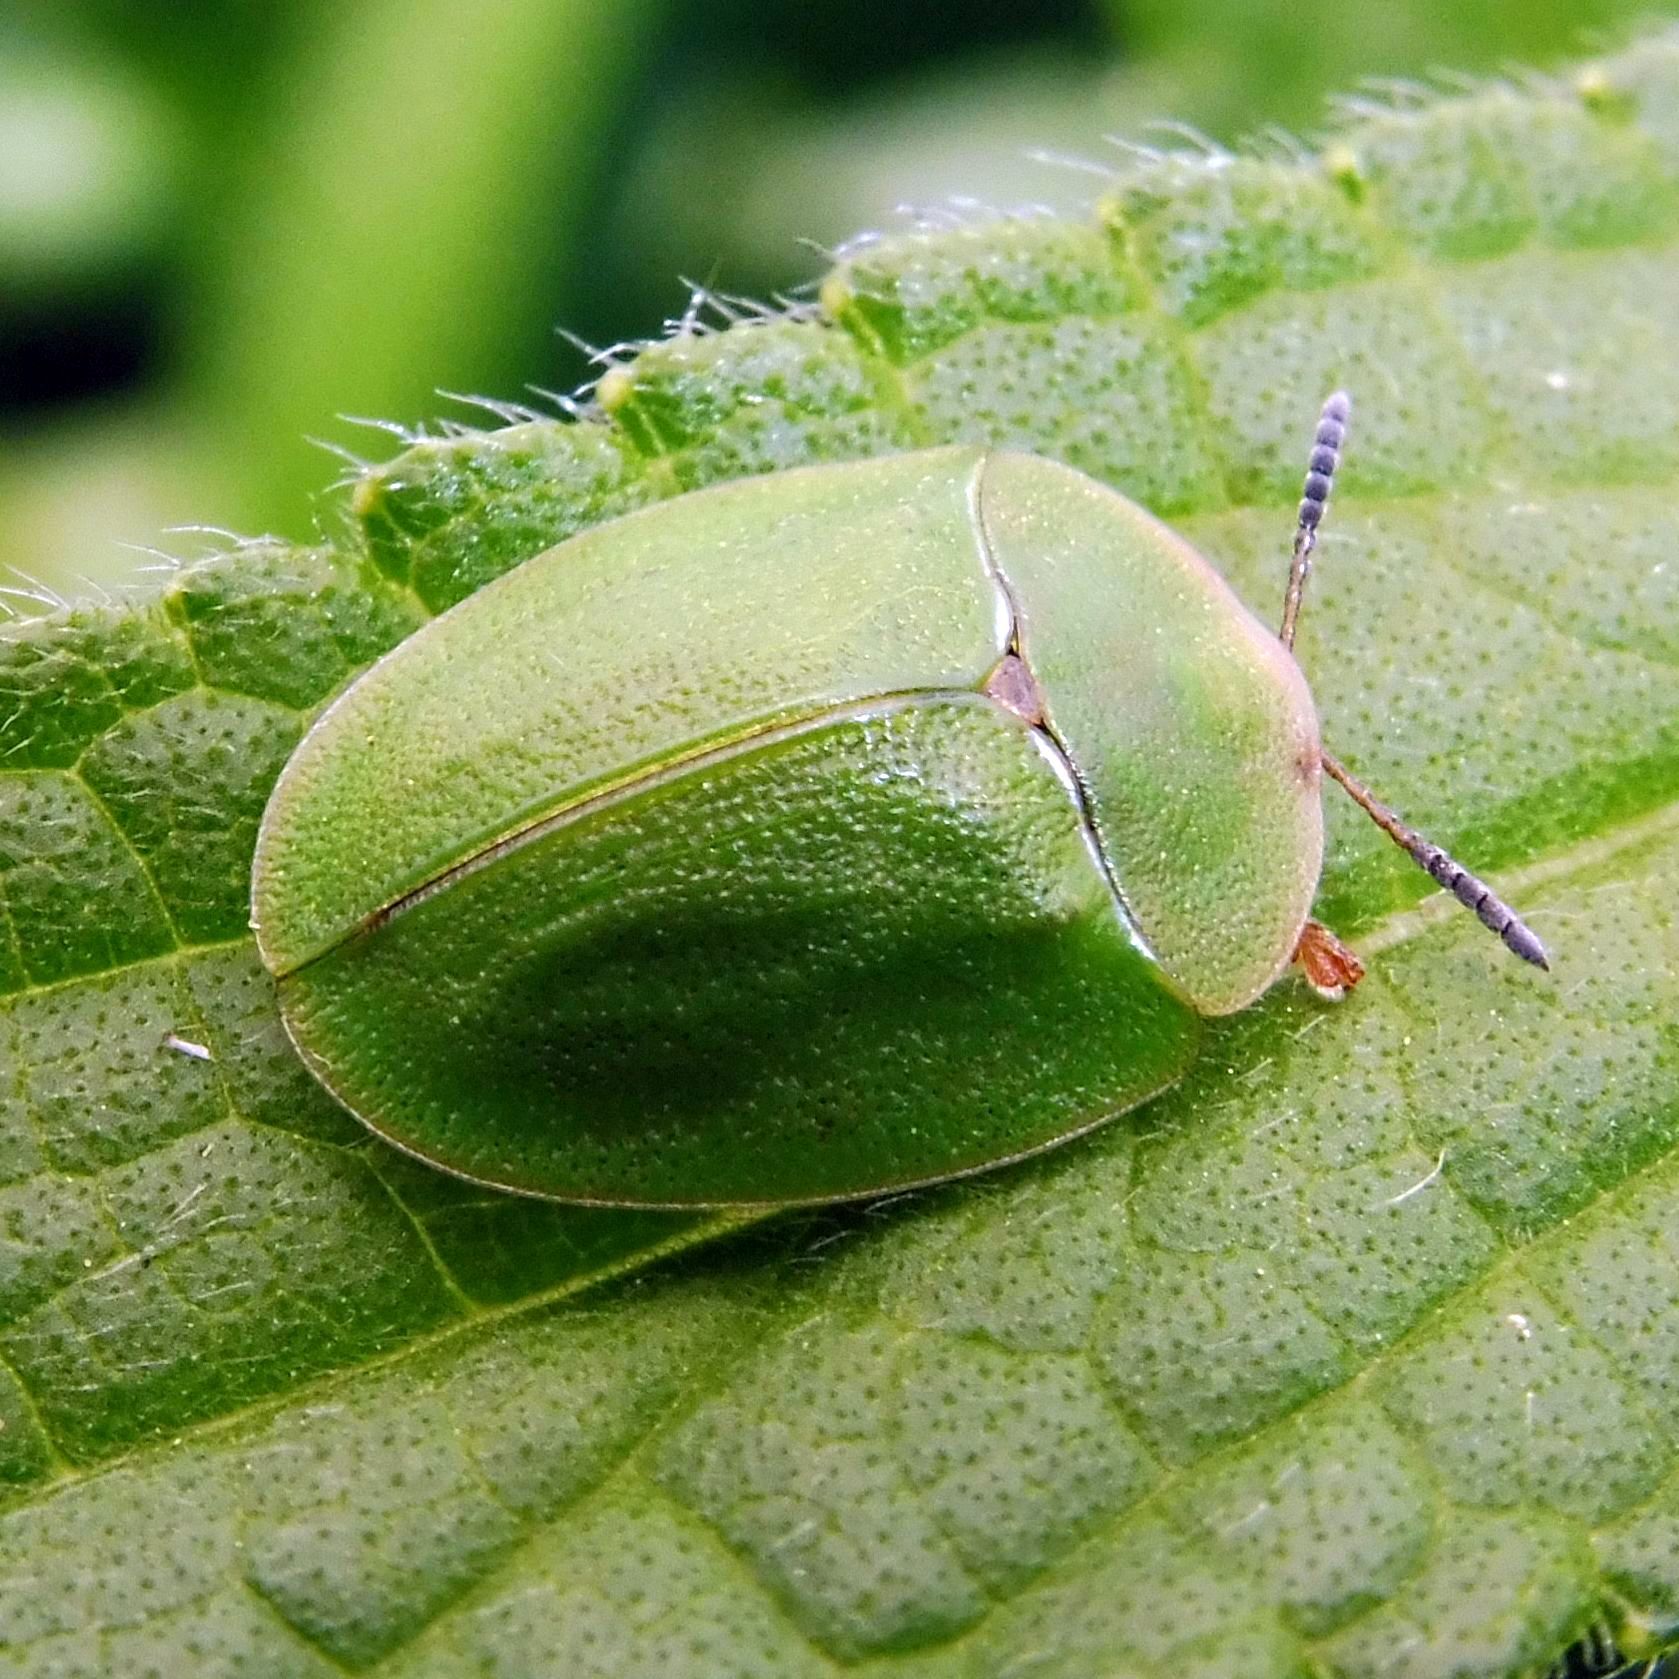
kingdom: Animalia
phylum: Arthropoda
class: Insecta
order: Coleoptera
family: Chrysomelidae
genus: Cassida
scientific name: Cassida viridis
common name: Green tortoise beetle
